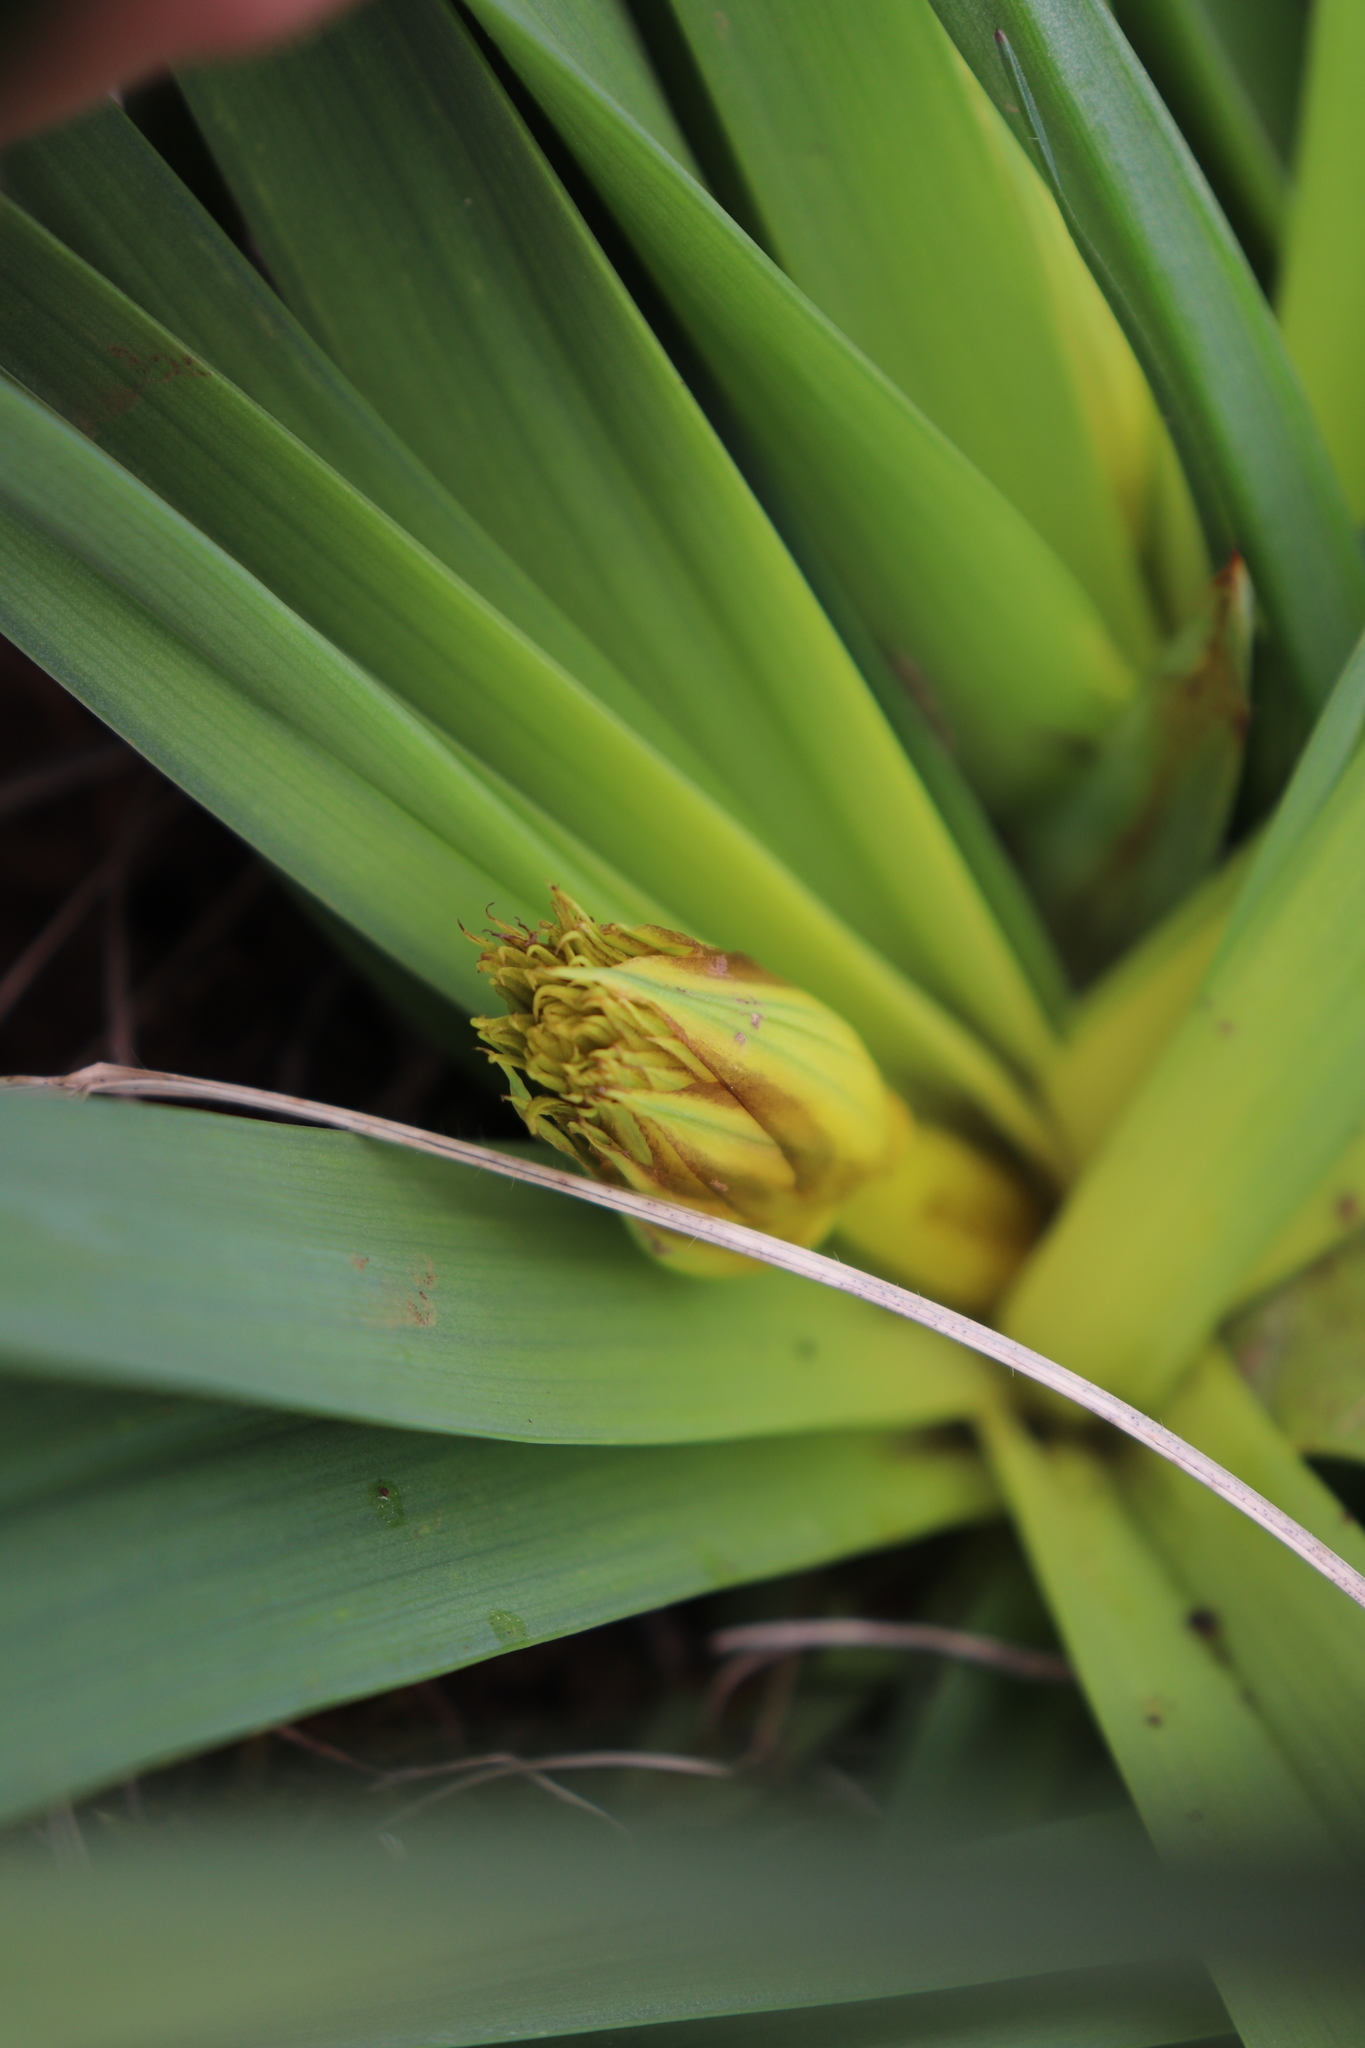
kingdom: Plantae
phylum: Tracheophyta
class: Liliopsida
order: Asparagales
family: Asphodelaceae
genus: Asphodelus
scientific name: Asphodelus albus
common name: White asphodel
